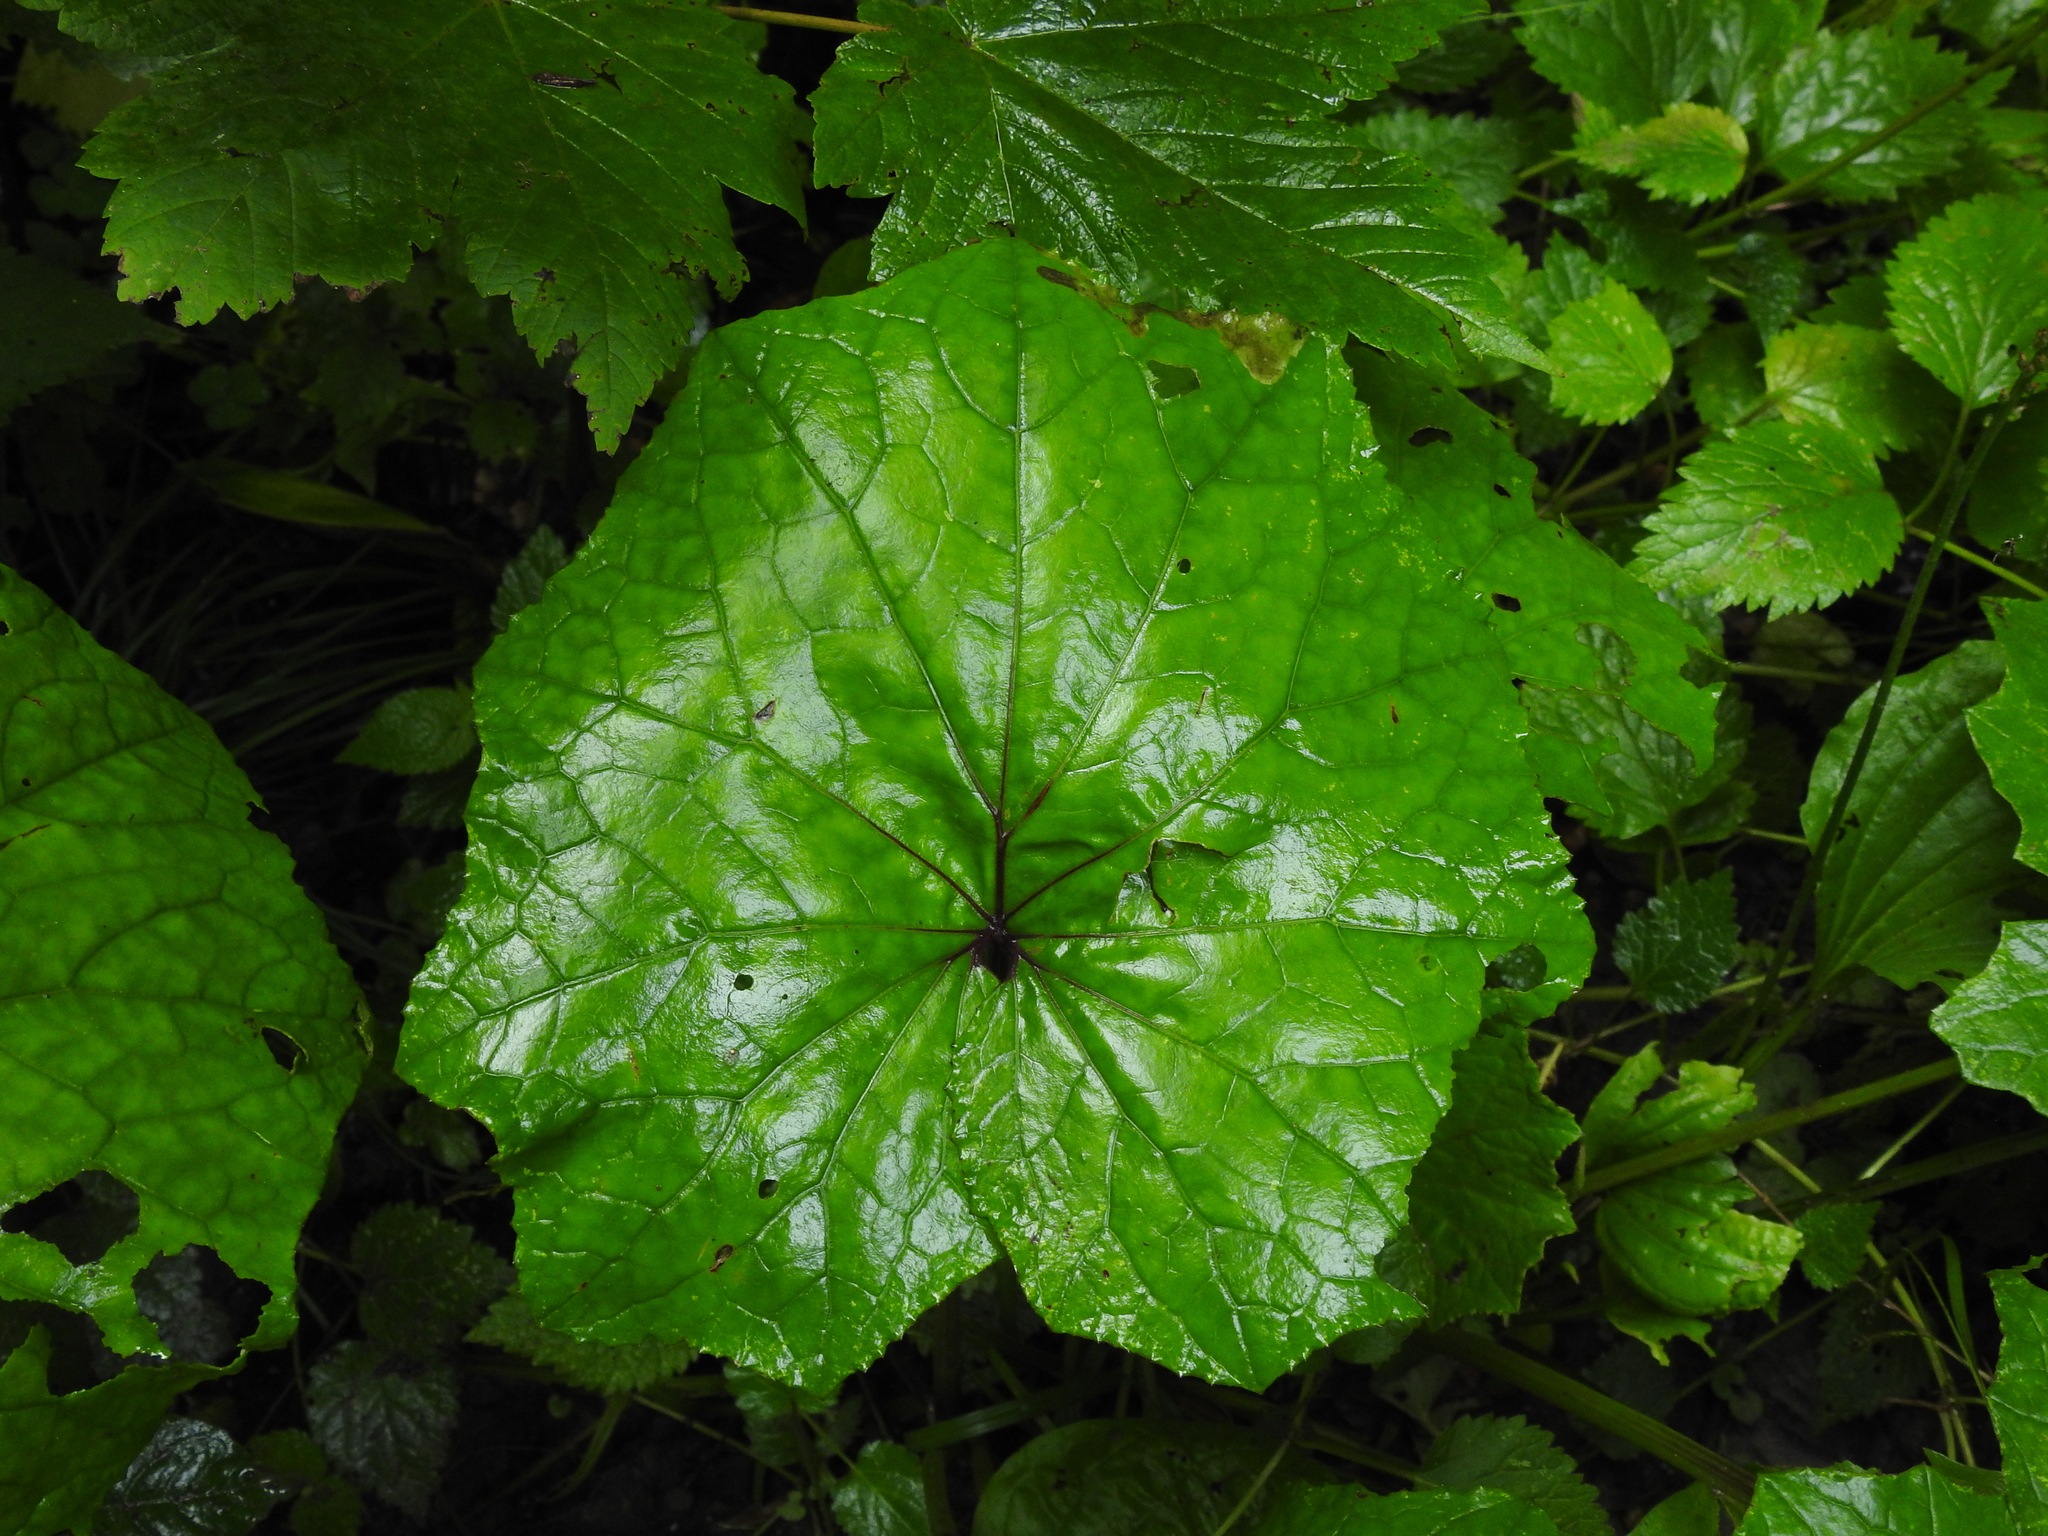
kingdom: Plantae
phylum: Tracheophyta
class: Magnoliopsida
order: Asterales
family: Asteraceae
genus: Tussilago
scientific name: Tussilago farfara
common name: Coltsfoot
